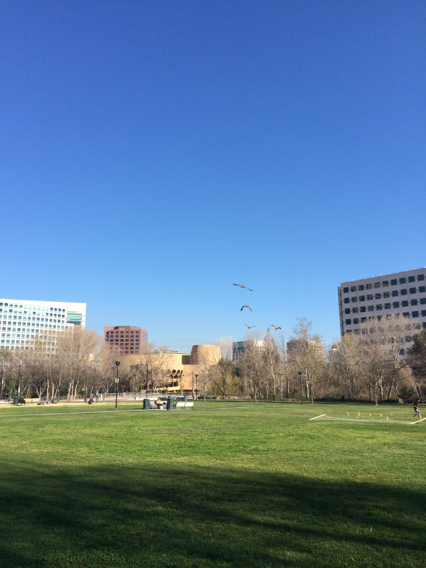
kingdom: Animalia
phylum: Chordata
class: Aves
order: Anseriformes
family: Anatidae
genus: Branta
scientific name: Branta canadensis
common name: Canada goose
